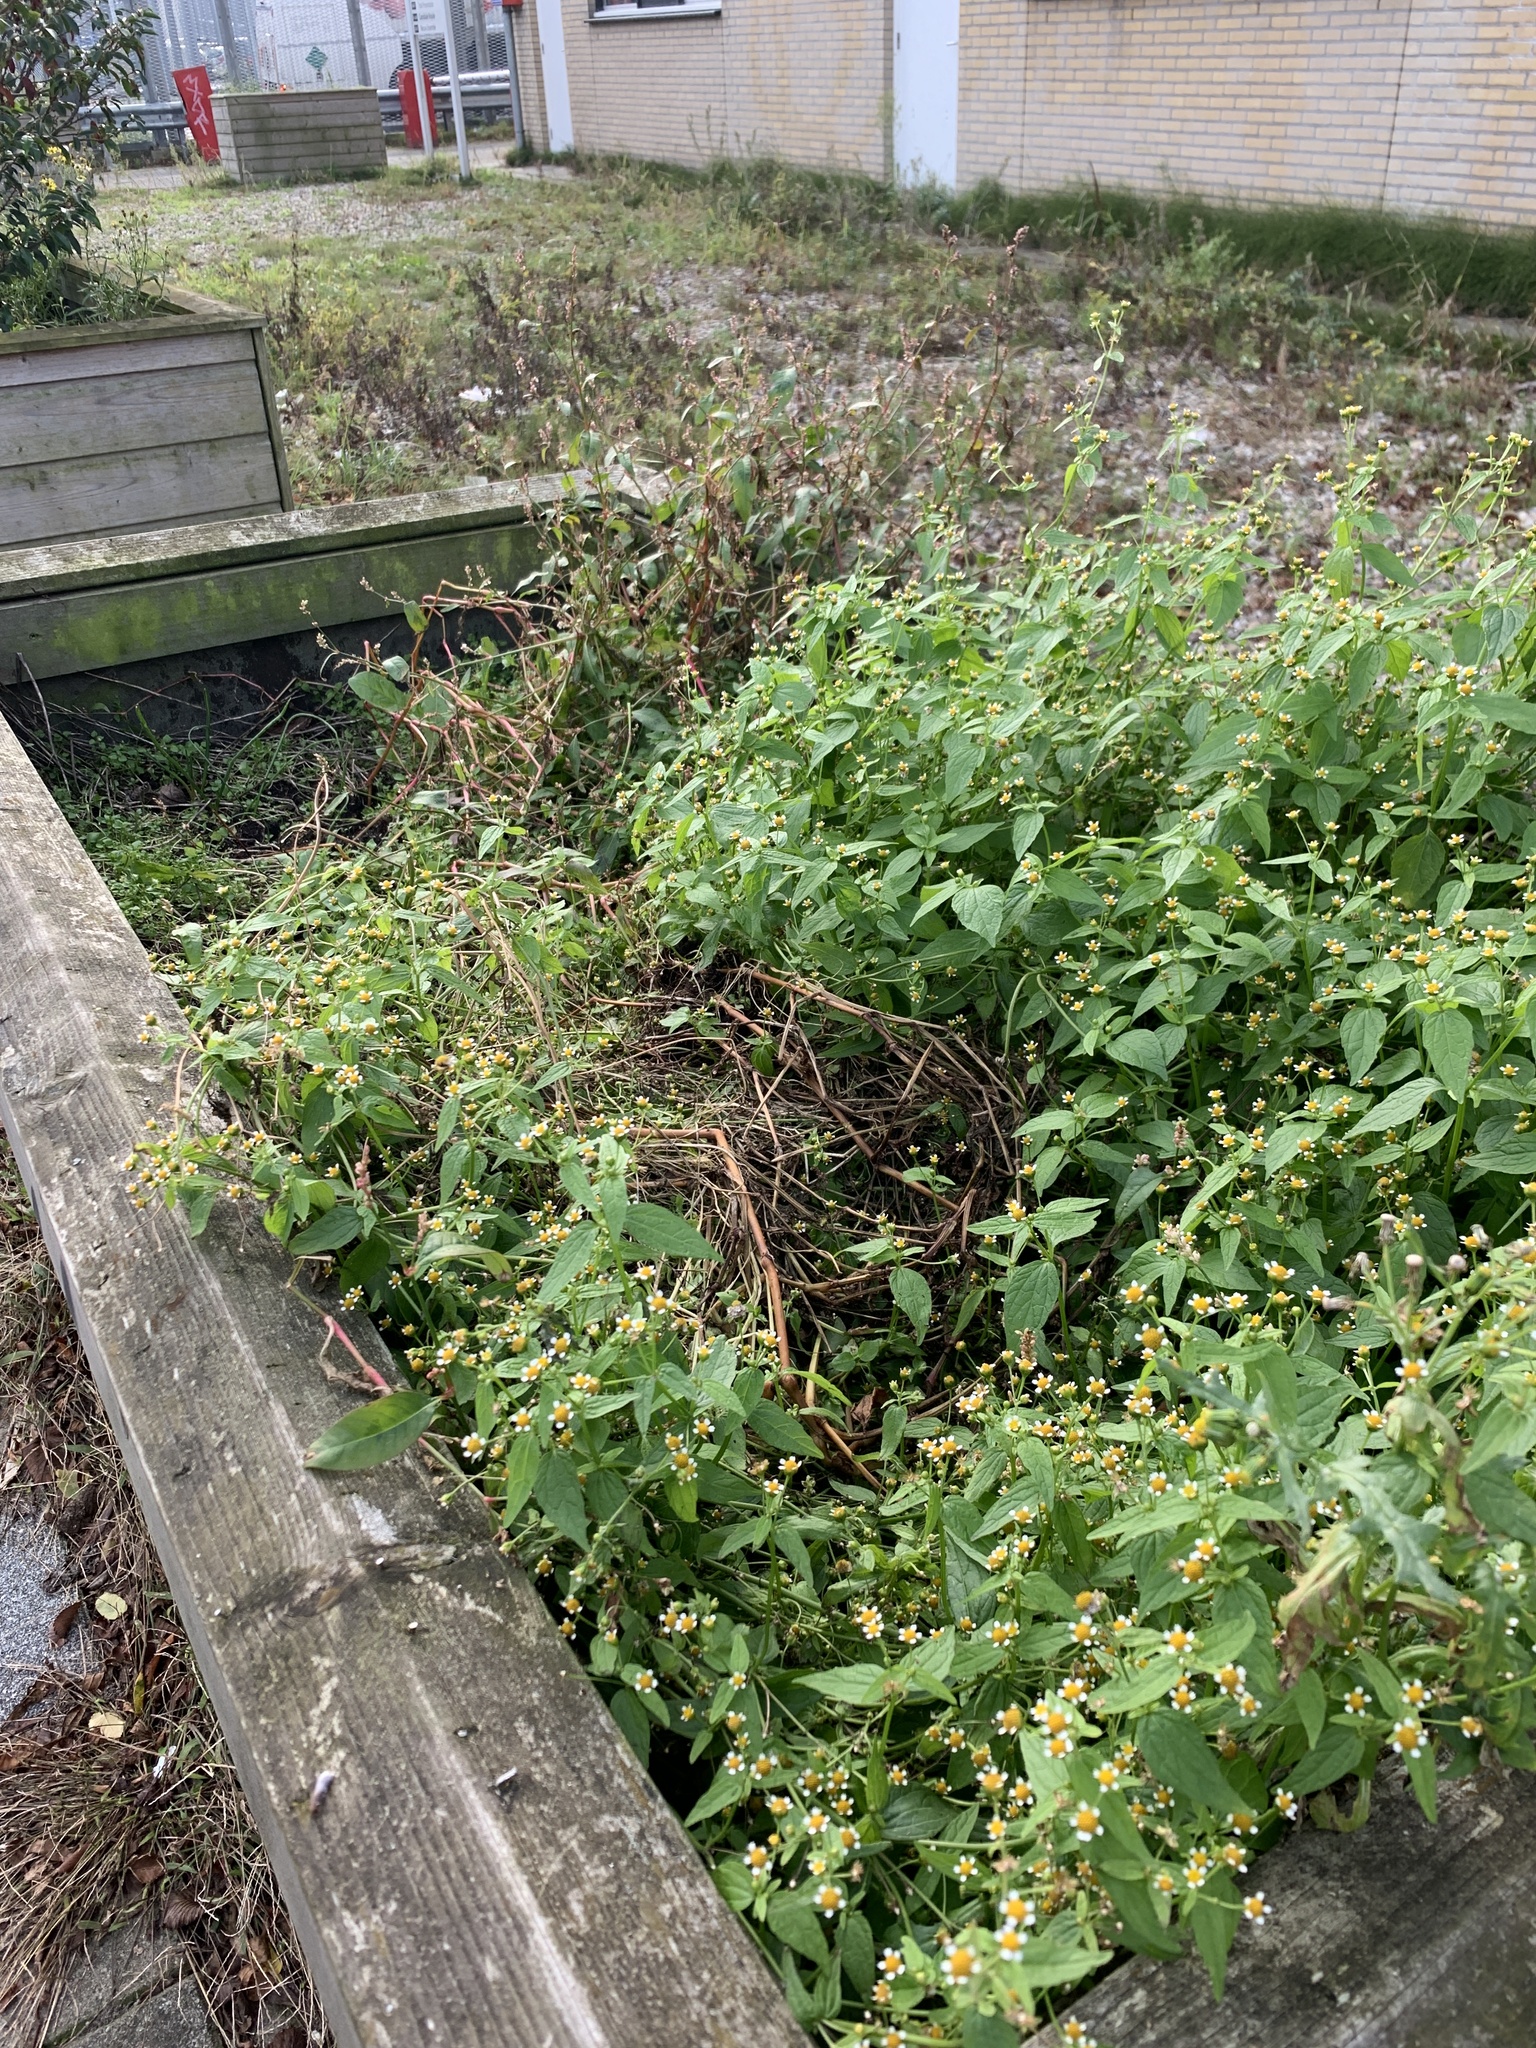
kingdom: Plantae
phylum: Tracheophyta
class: Magnoliopsida
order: Asterales
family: Asteraceae
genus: Galinsoga
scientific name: Galinsoga parviflora
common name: Gallant soldier
